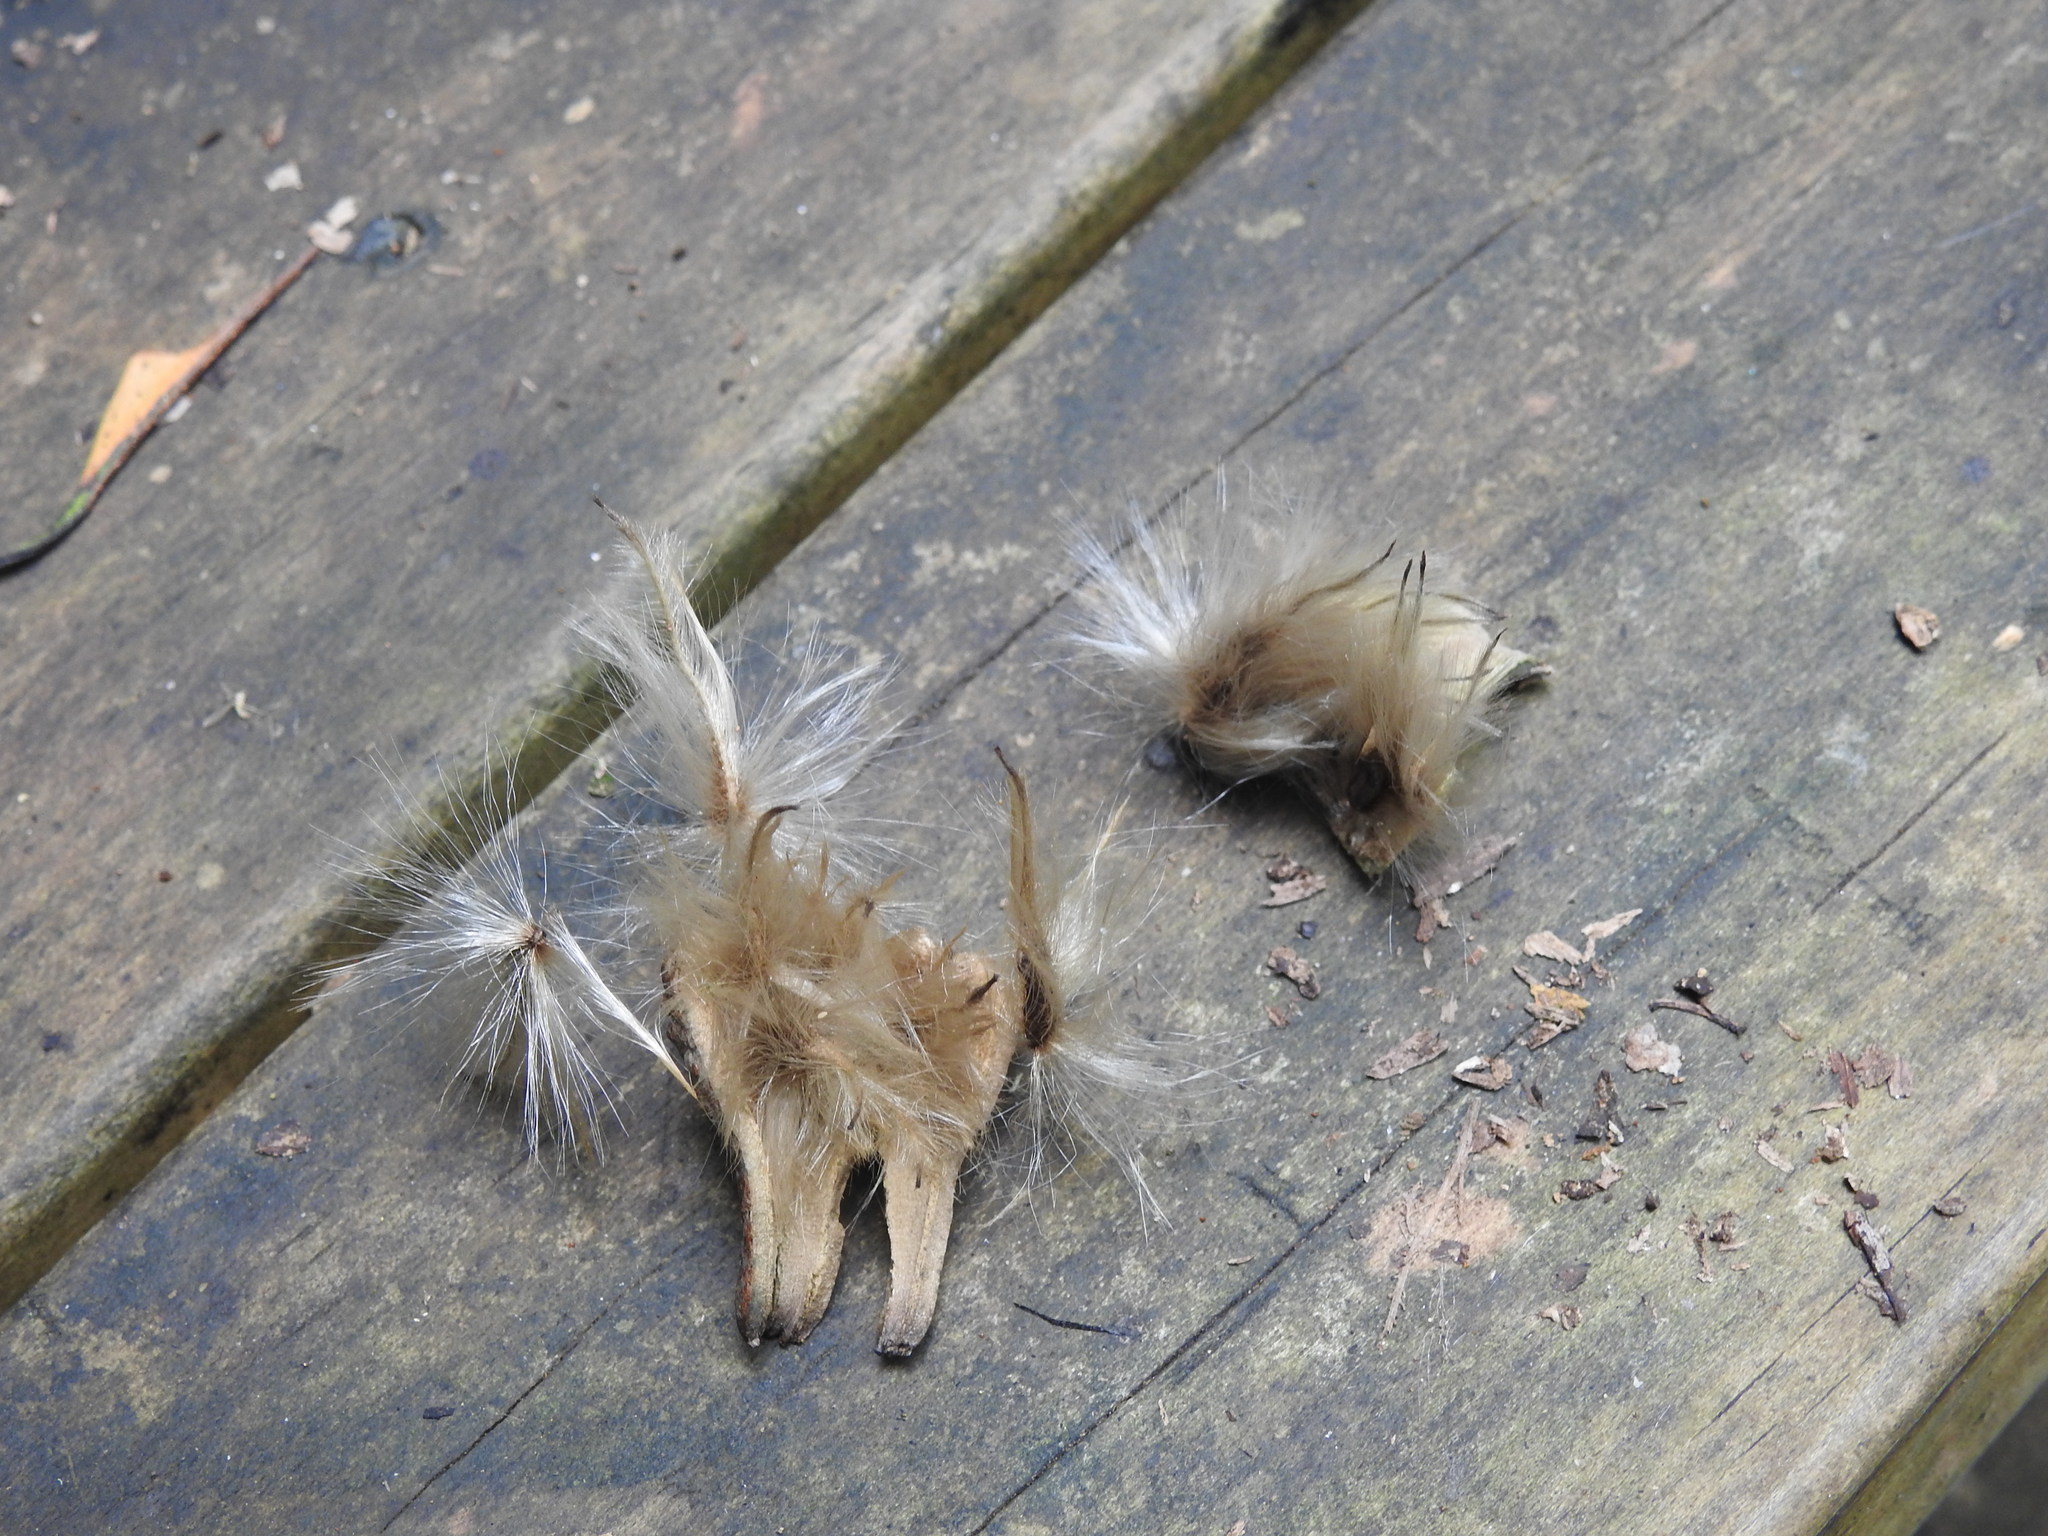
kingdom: Plantae
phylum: Tracheophyta
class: Magnoliopsida
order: Laurales
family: Atherospermataceae
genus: Laurelia
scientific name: Laurelia novae-zelandiae
